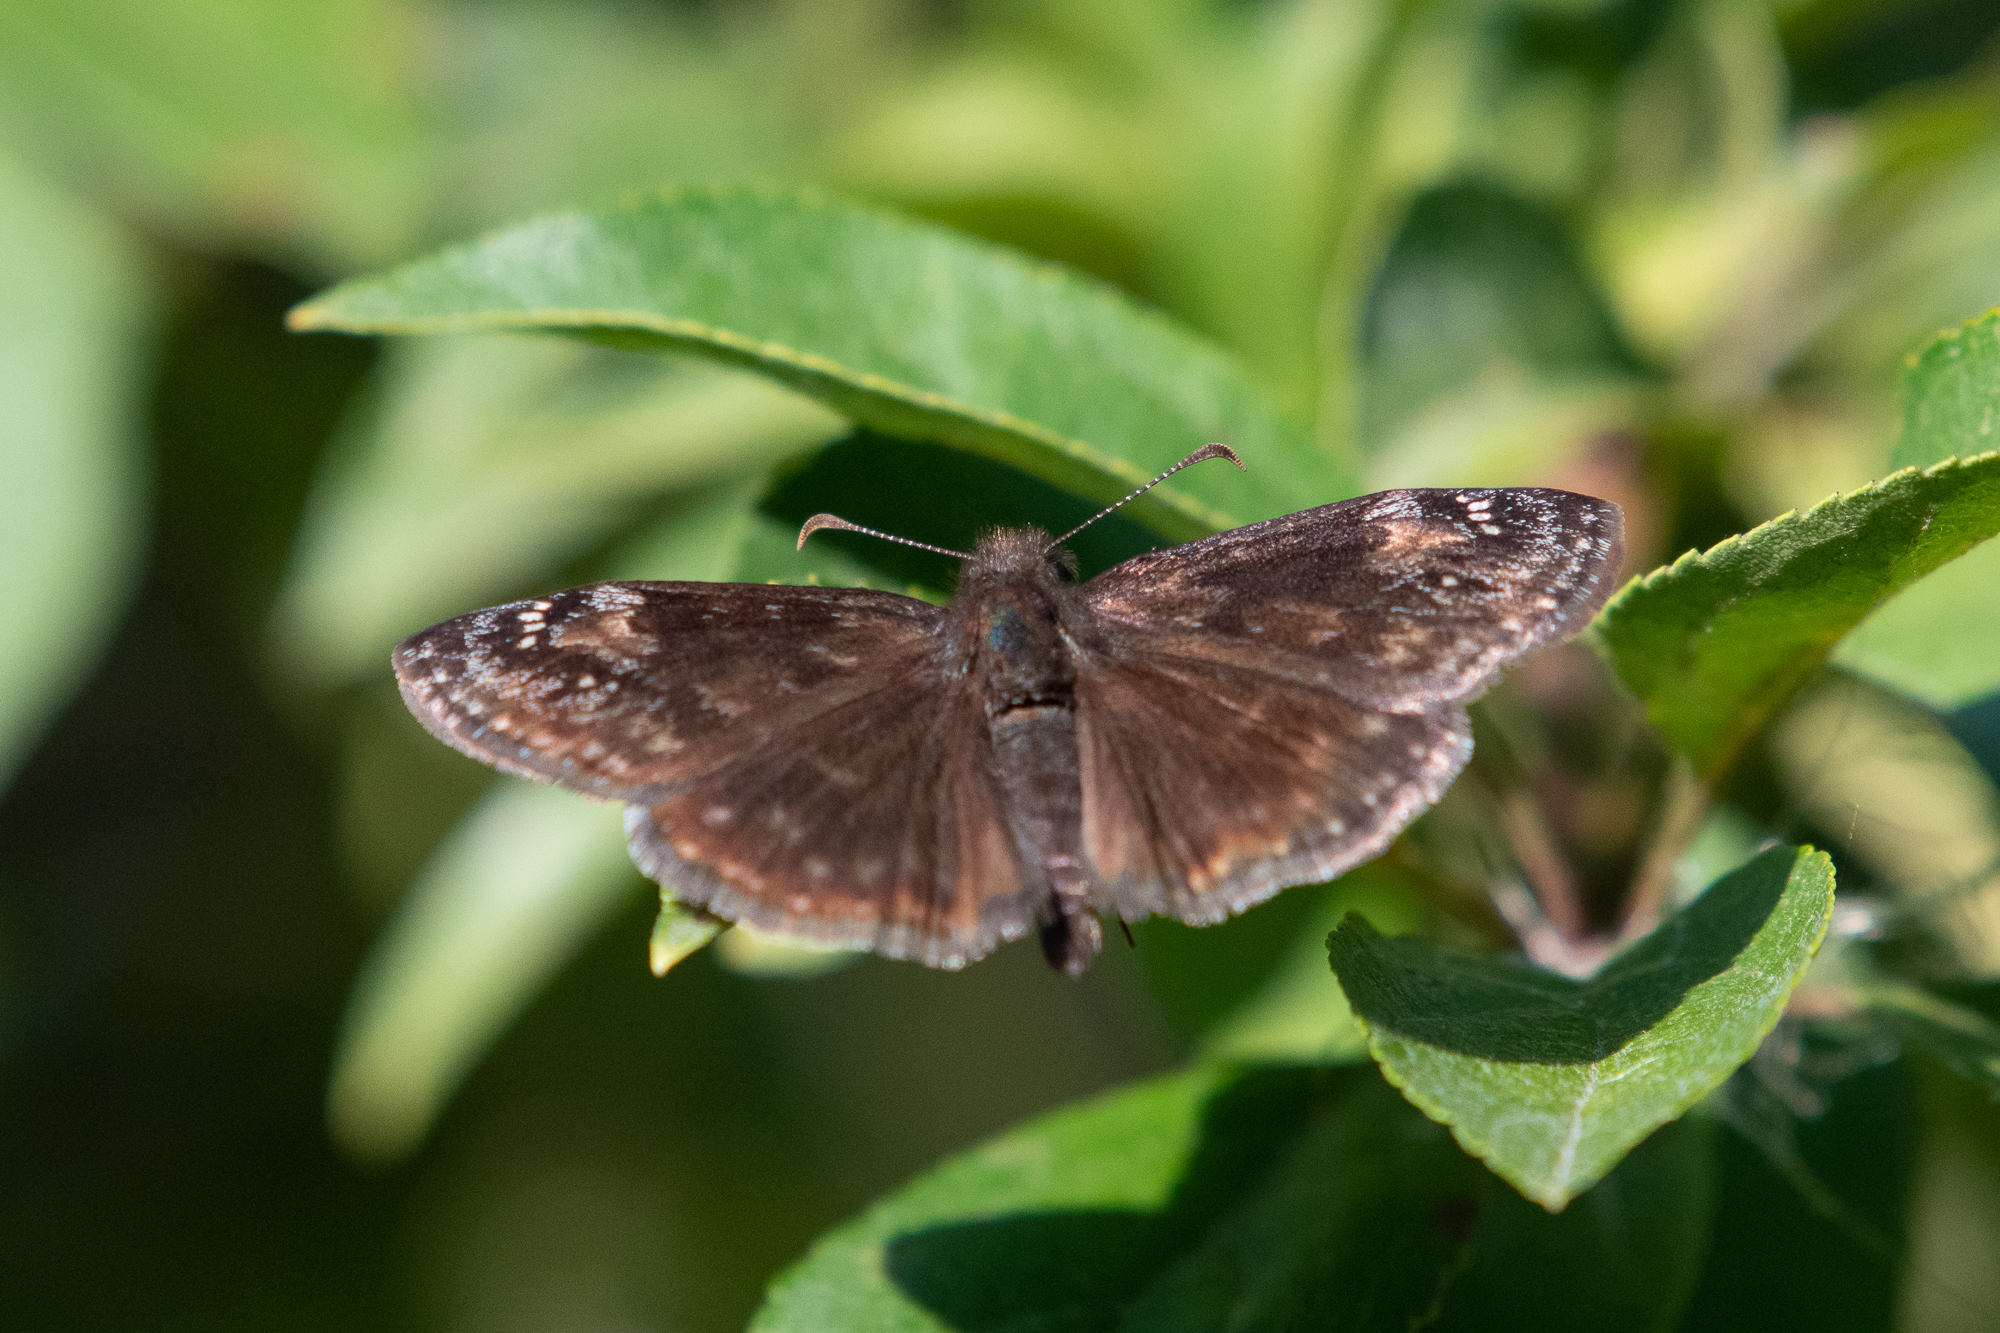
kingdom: Animalia
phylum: Arthropoda
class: Insecta
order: Lepidoptera
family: Hesperiidae
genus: Erynnis
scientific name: Erynnis baptisiae
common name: Wild indigo duskywing
